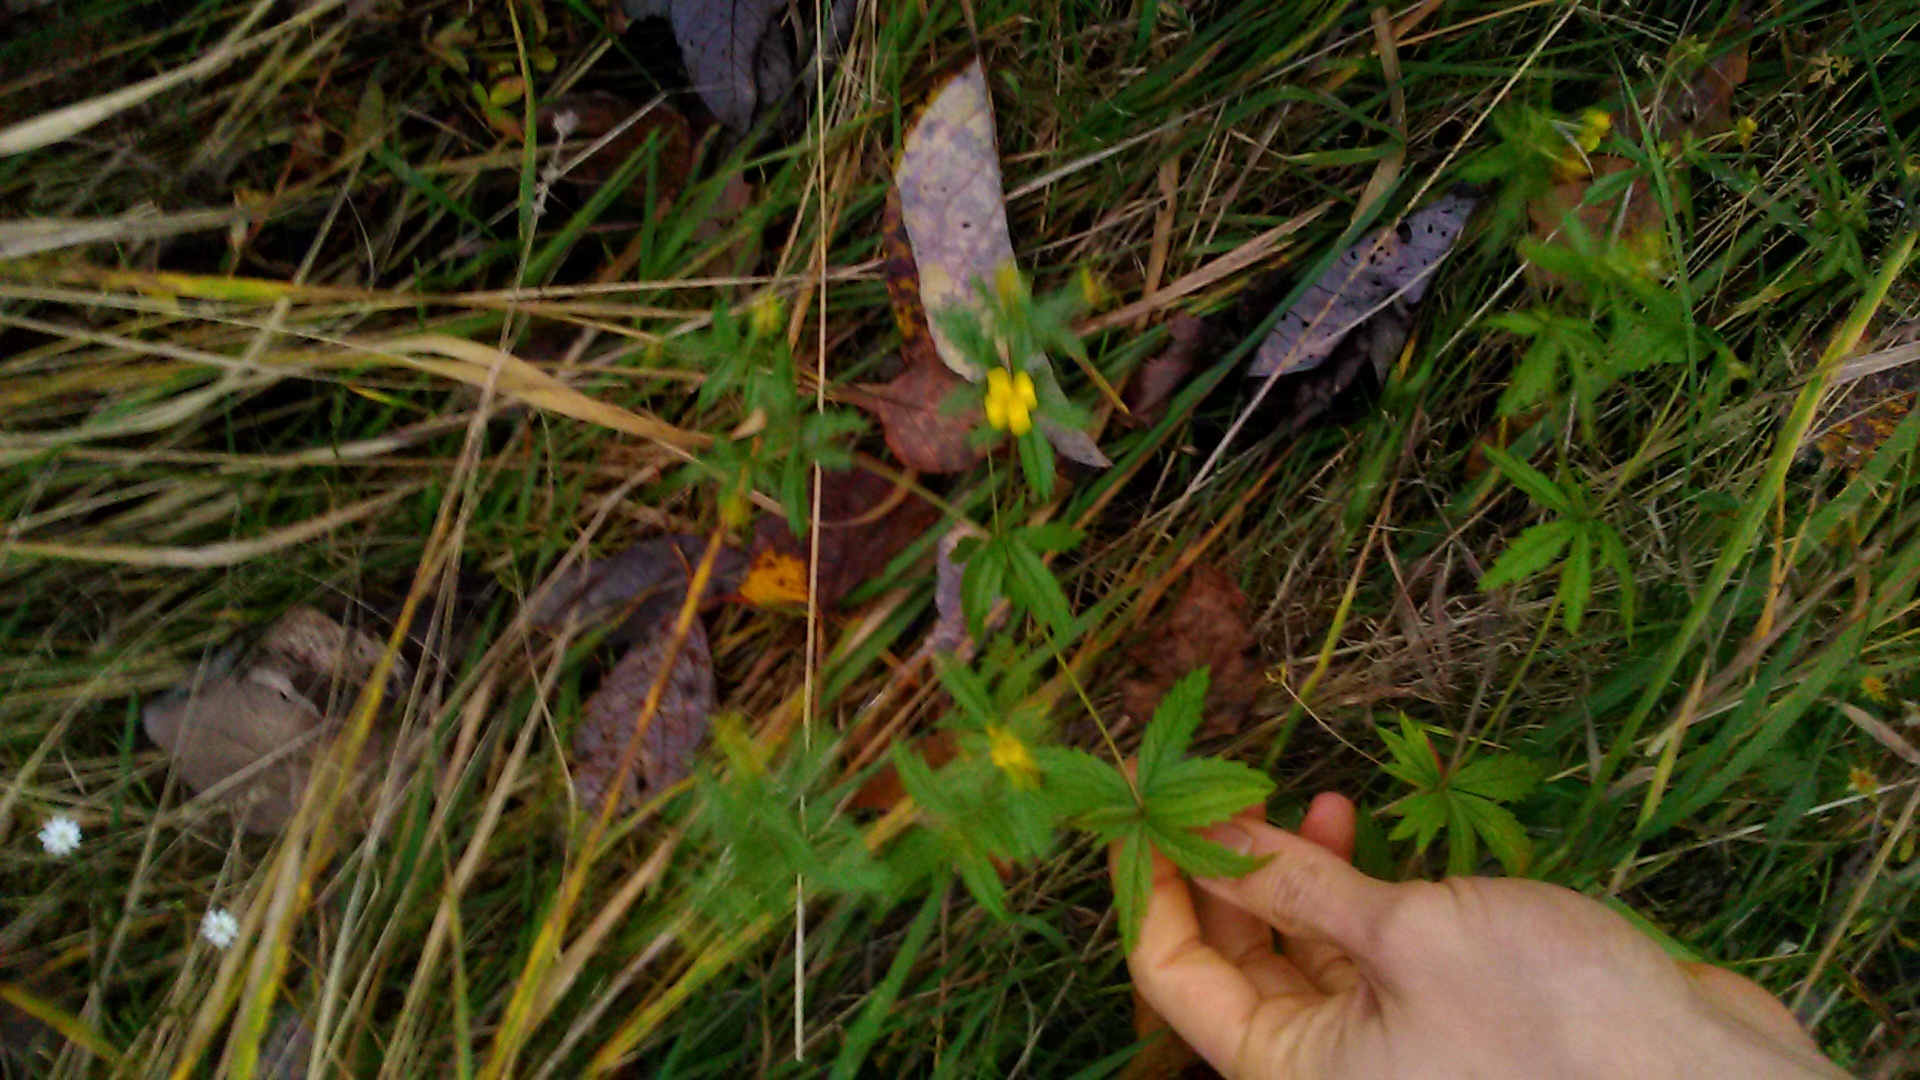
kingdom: Plantae
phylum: Tracheophyta
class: Magnoliopsida
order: Rosales
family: Rosaceae
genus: Potentilla
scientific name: Potentilla erecta
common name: Tormentil
